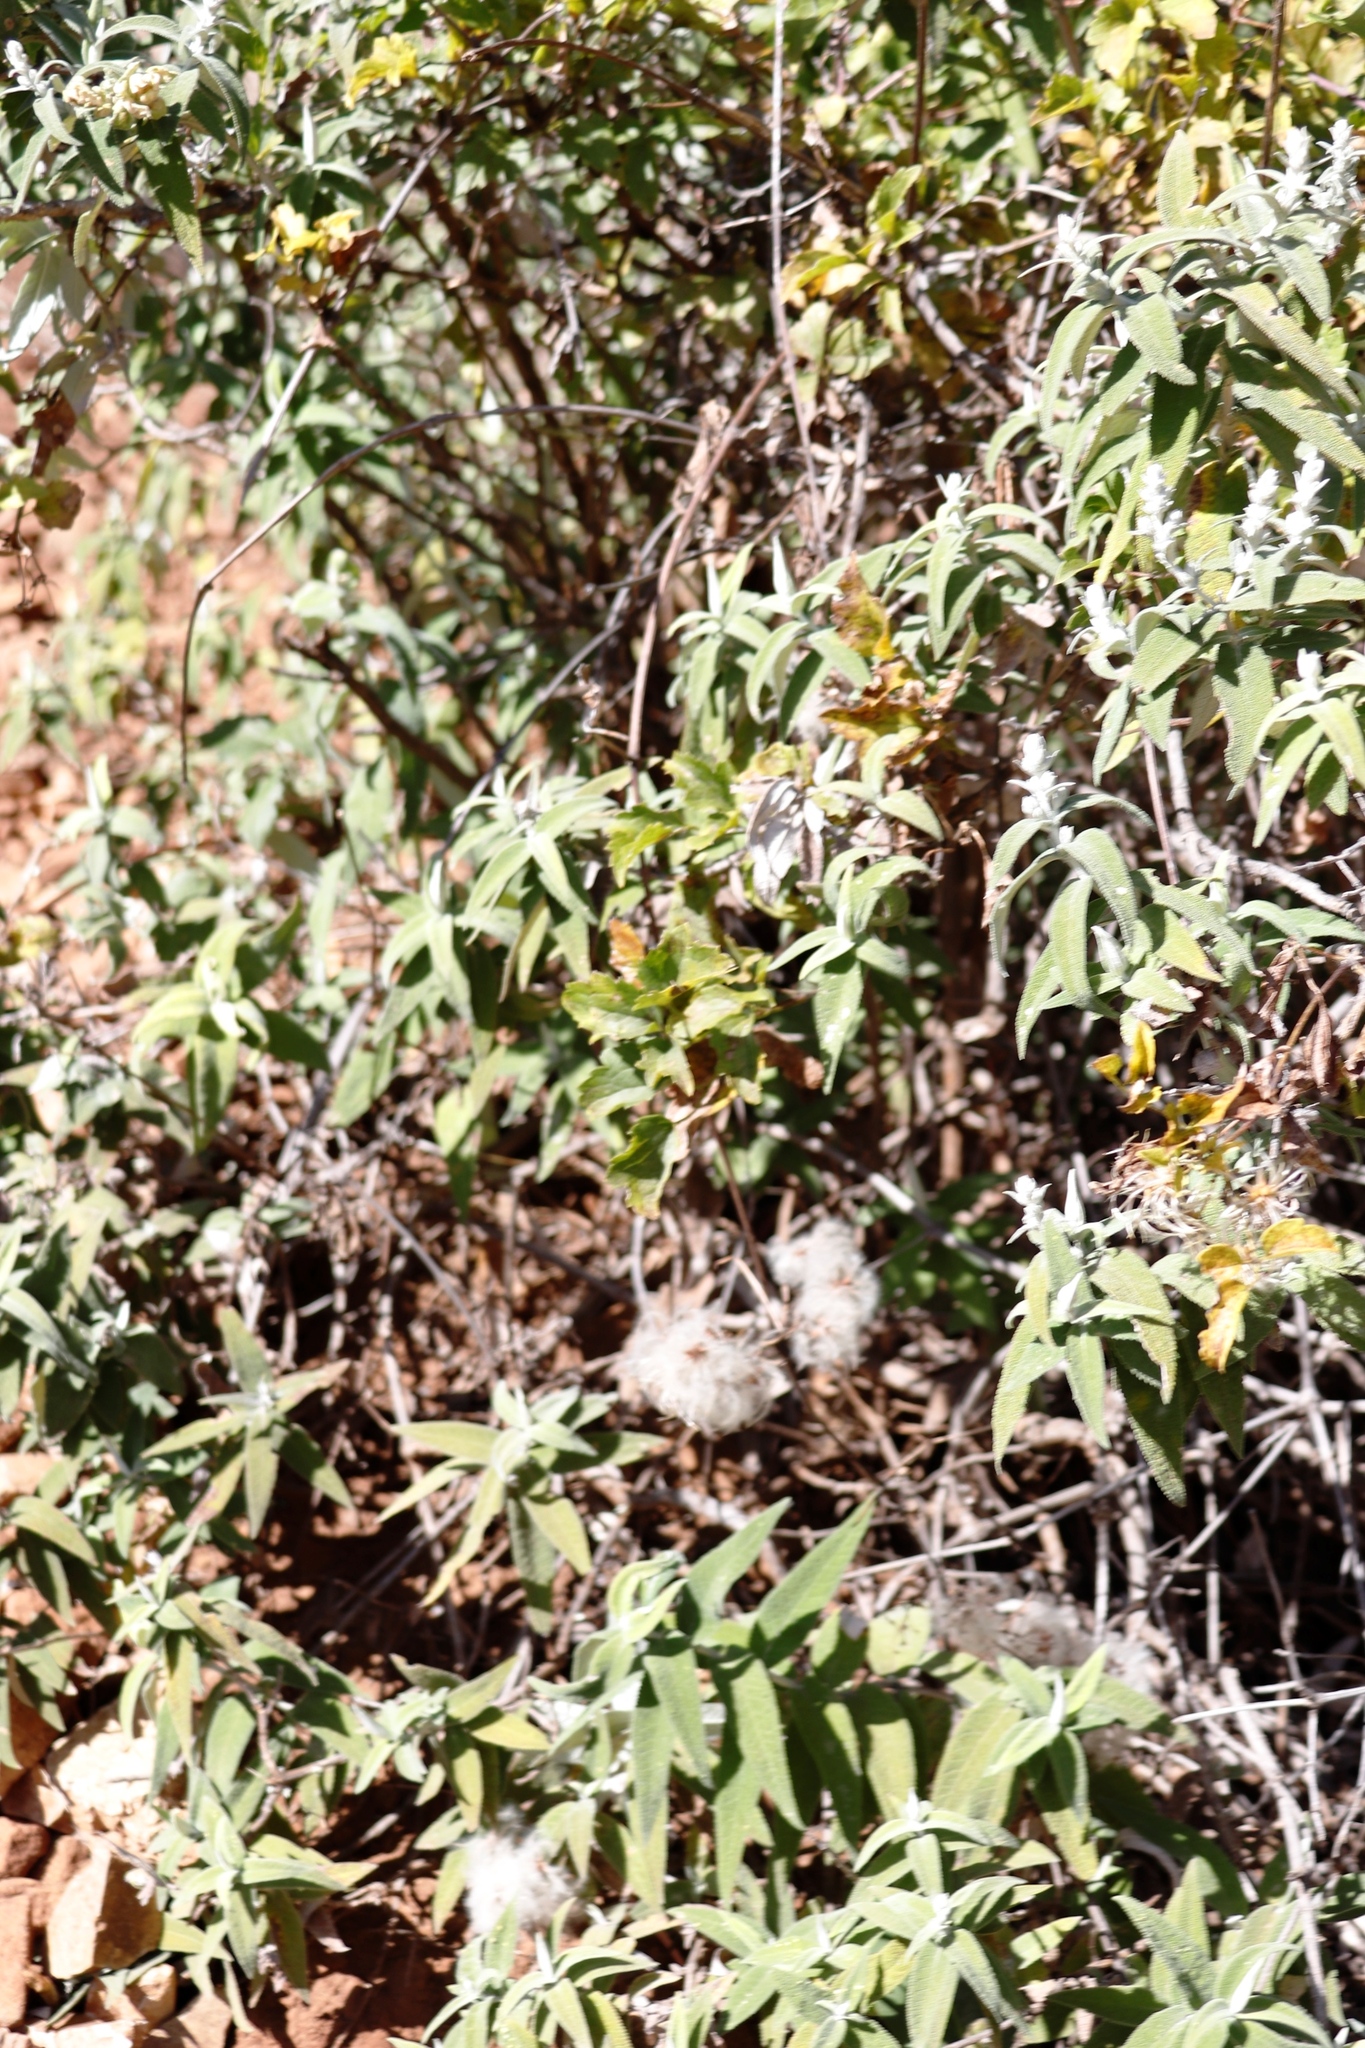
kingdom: Plantae
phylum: Tracheophyta
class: Magnoliopsida
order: Ranunculales
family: Ranunculaceae
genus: Clematis
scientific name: Clematis brachiata
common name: Traveler's-joy
